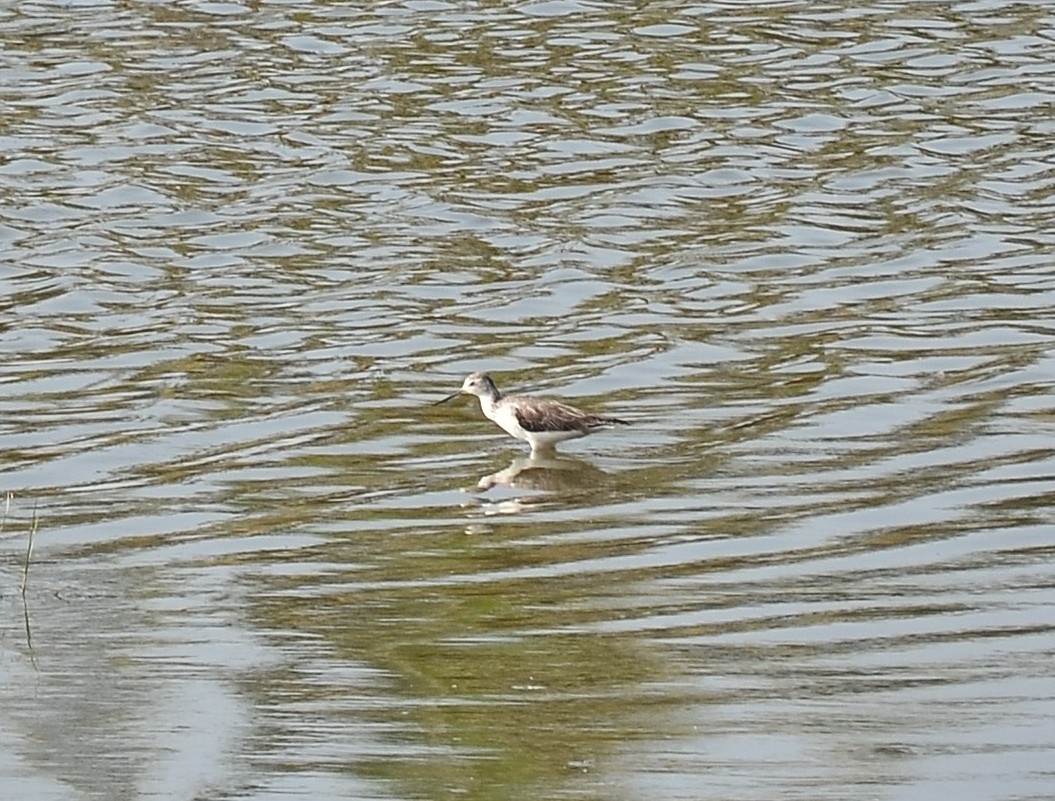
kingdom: Animalia
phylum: Chordata
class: Aves
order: Charadriiformes
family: Scolopacidae
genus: Tringa
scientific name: Tringa stagnatilis
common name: Marsh sandpiper
